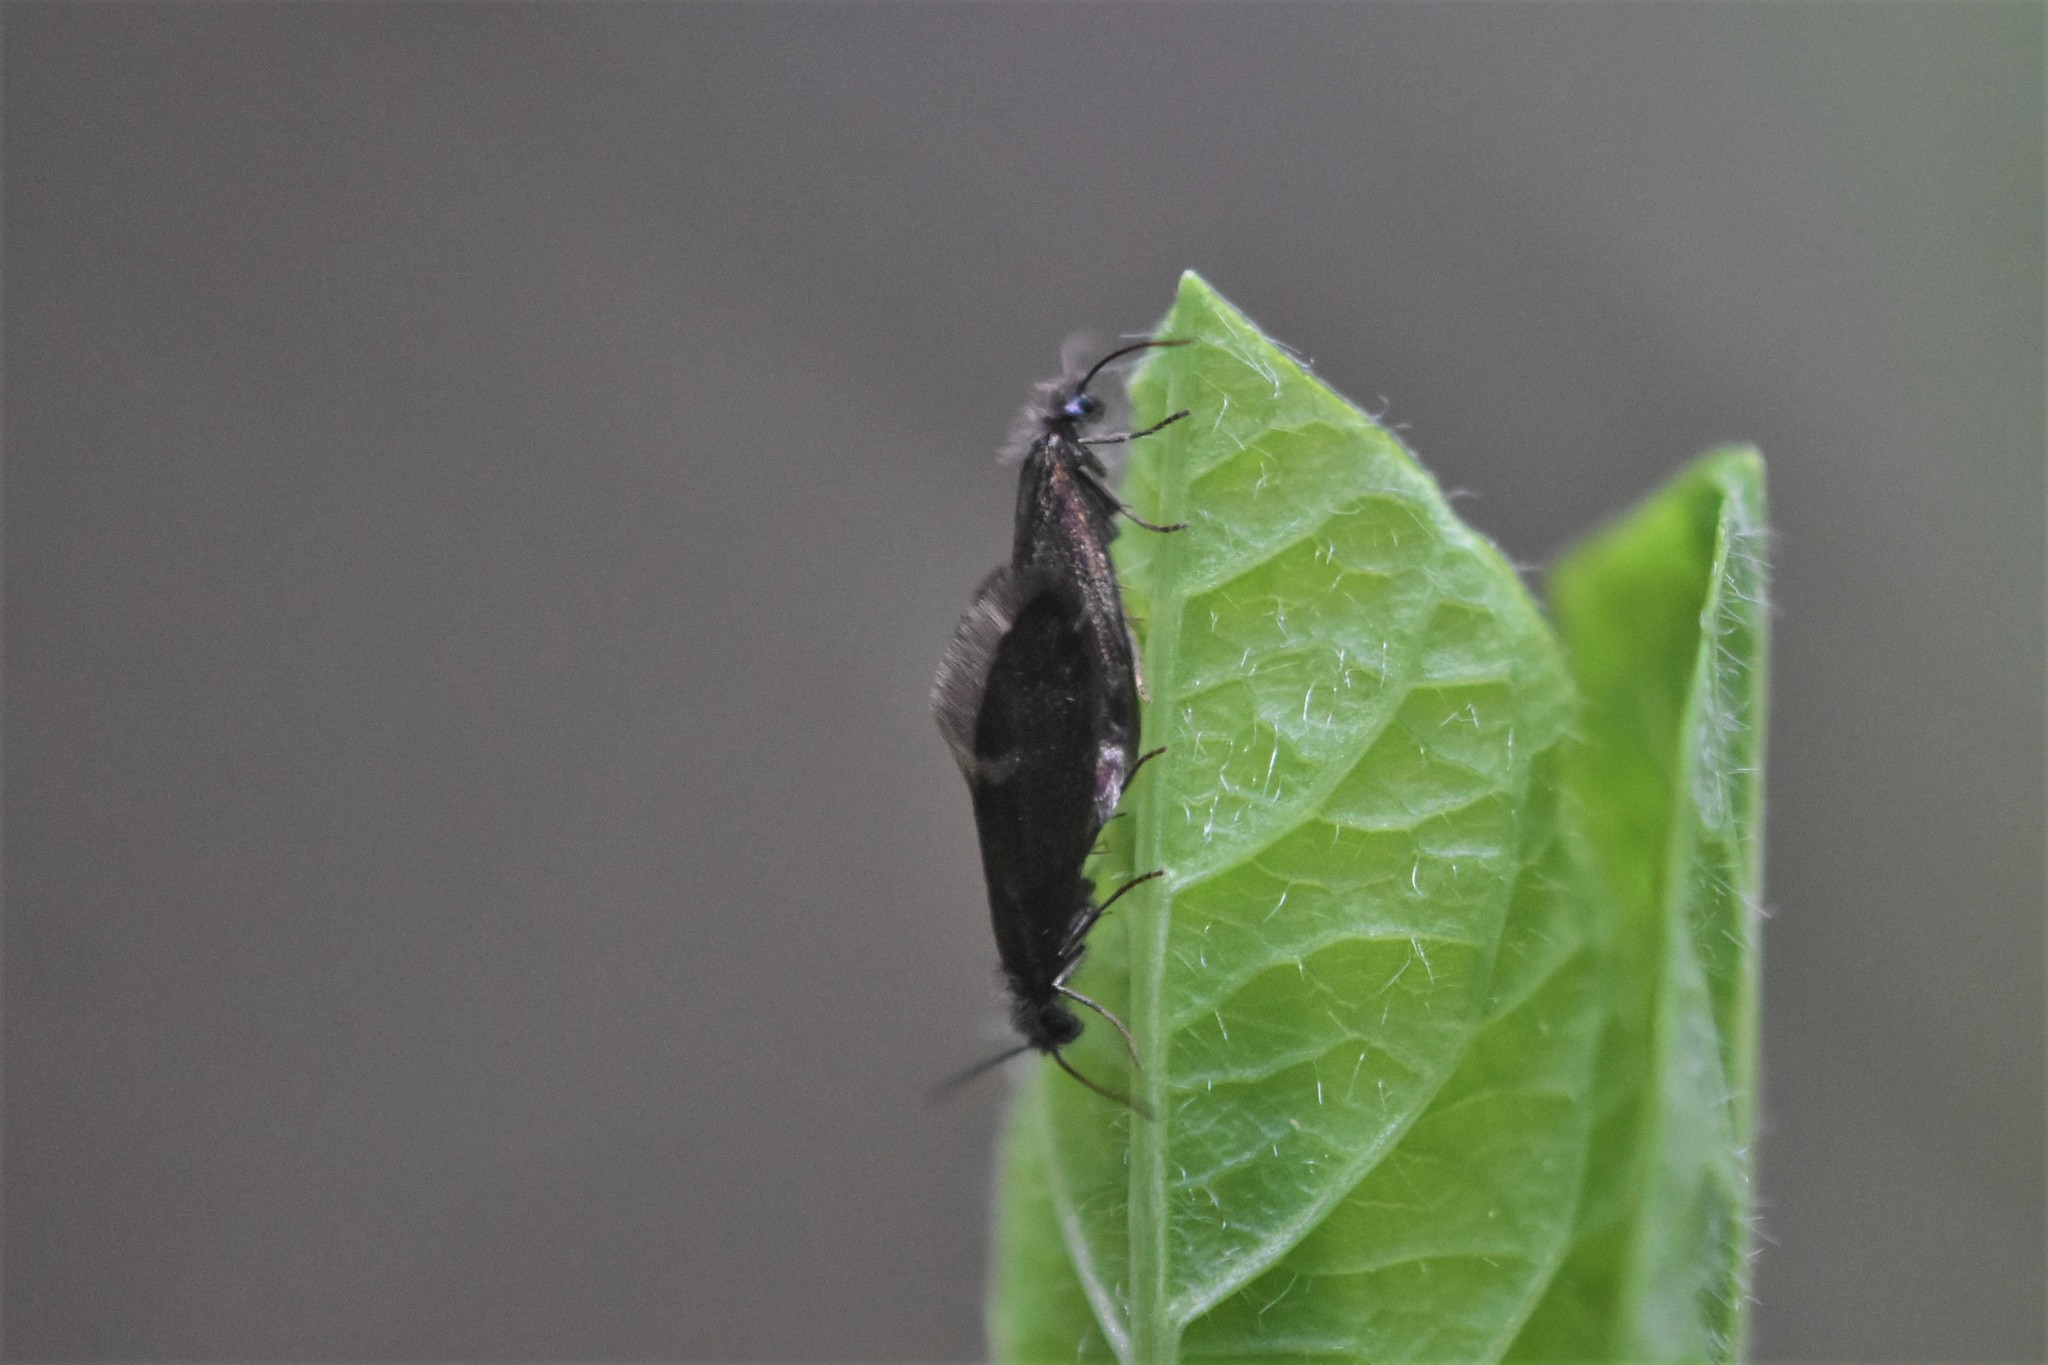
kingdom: Animalia
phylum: Arthropoda
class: Insecta
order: Lepidoptera
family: Eriocraniidae
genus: Eriocrania
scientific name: Eriocrania semipurpurella
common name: Early purple
